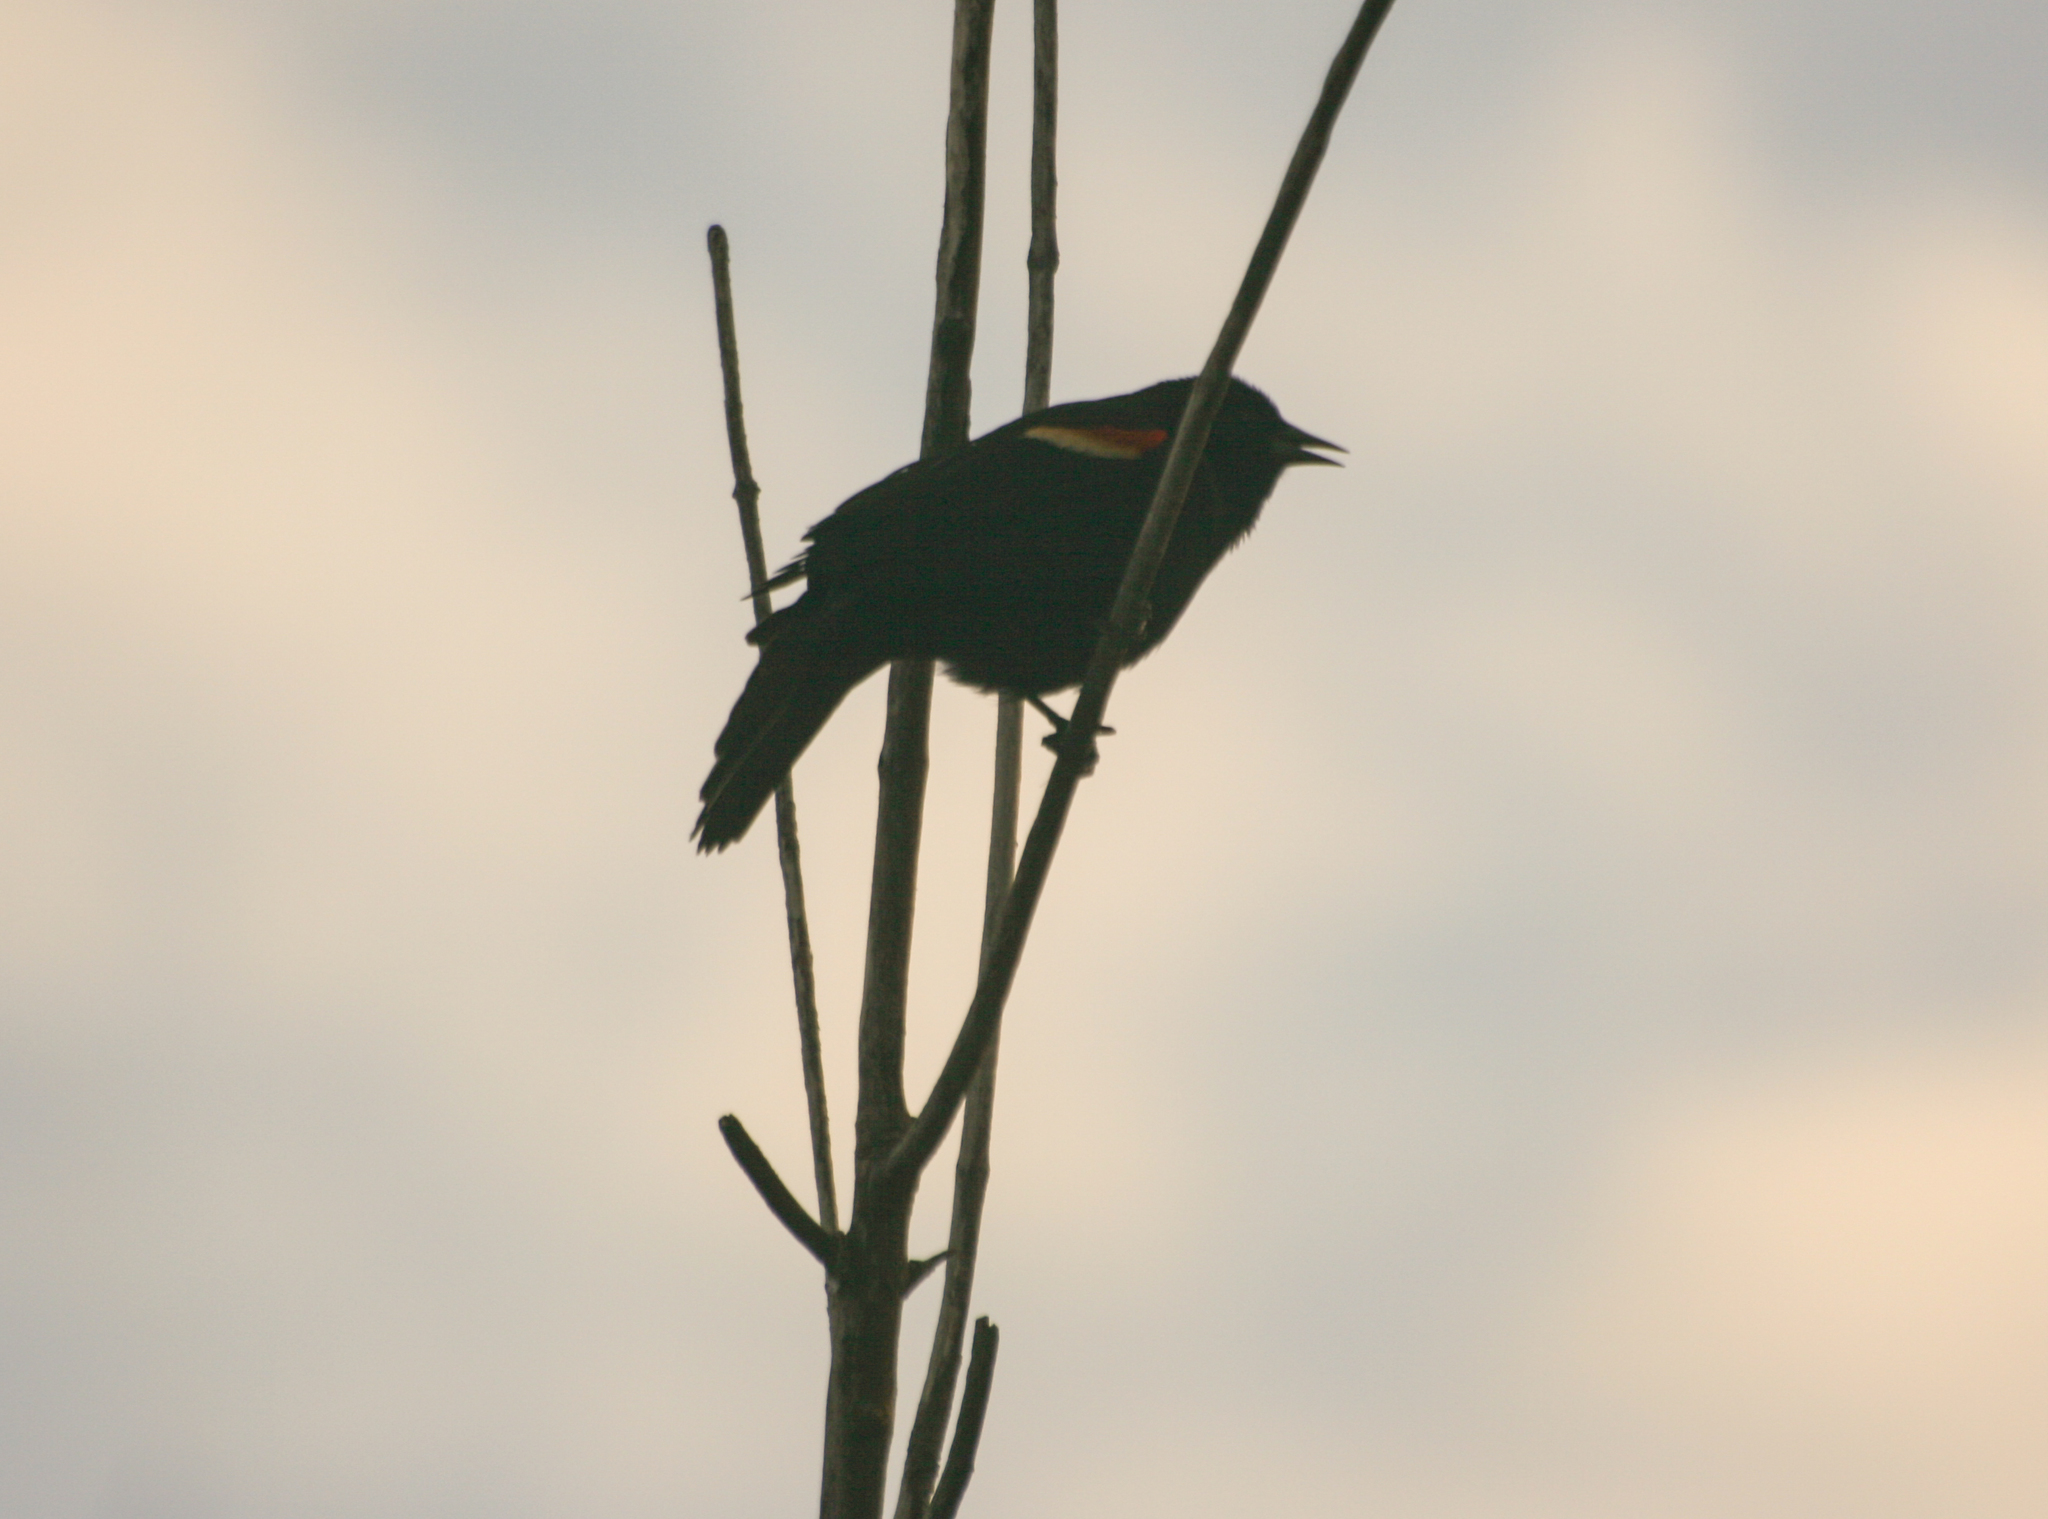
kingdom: Animalia
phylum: Chordata
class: Aves
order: Passeriformes
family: Icteridae
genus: Agelaius
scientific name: Agelaius phoeniceus
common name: Red-winged blackbird
